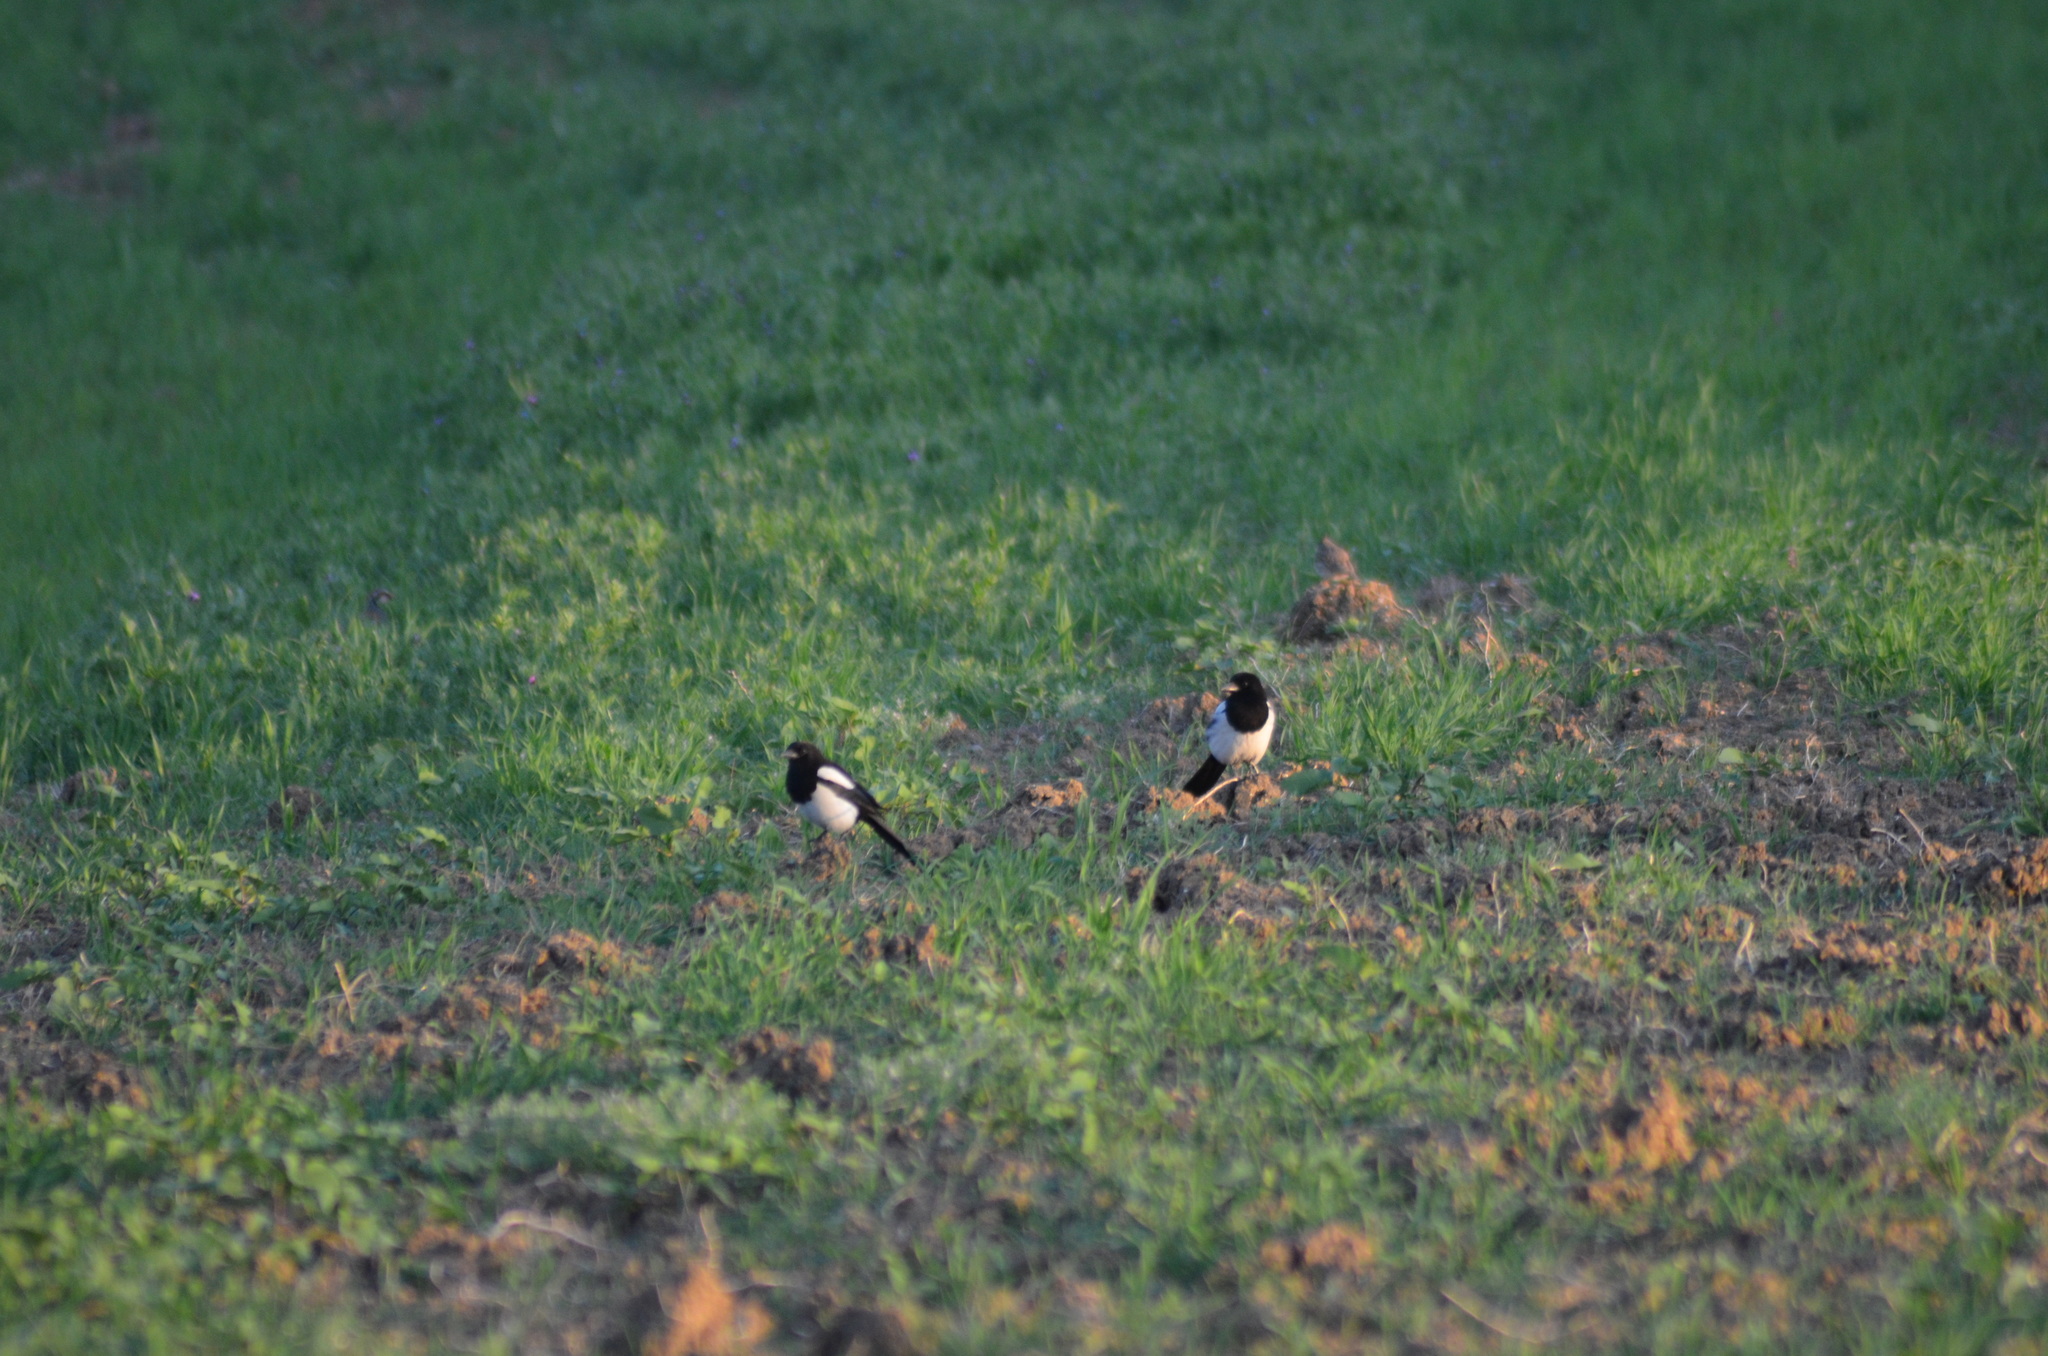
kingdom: Animalia
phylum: Chordata
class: Aves
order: Passeriformes
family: Corvidae
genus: Pica
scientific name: Pica pica
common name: Eurasian magpie
